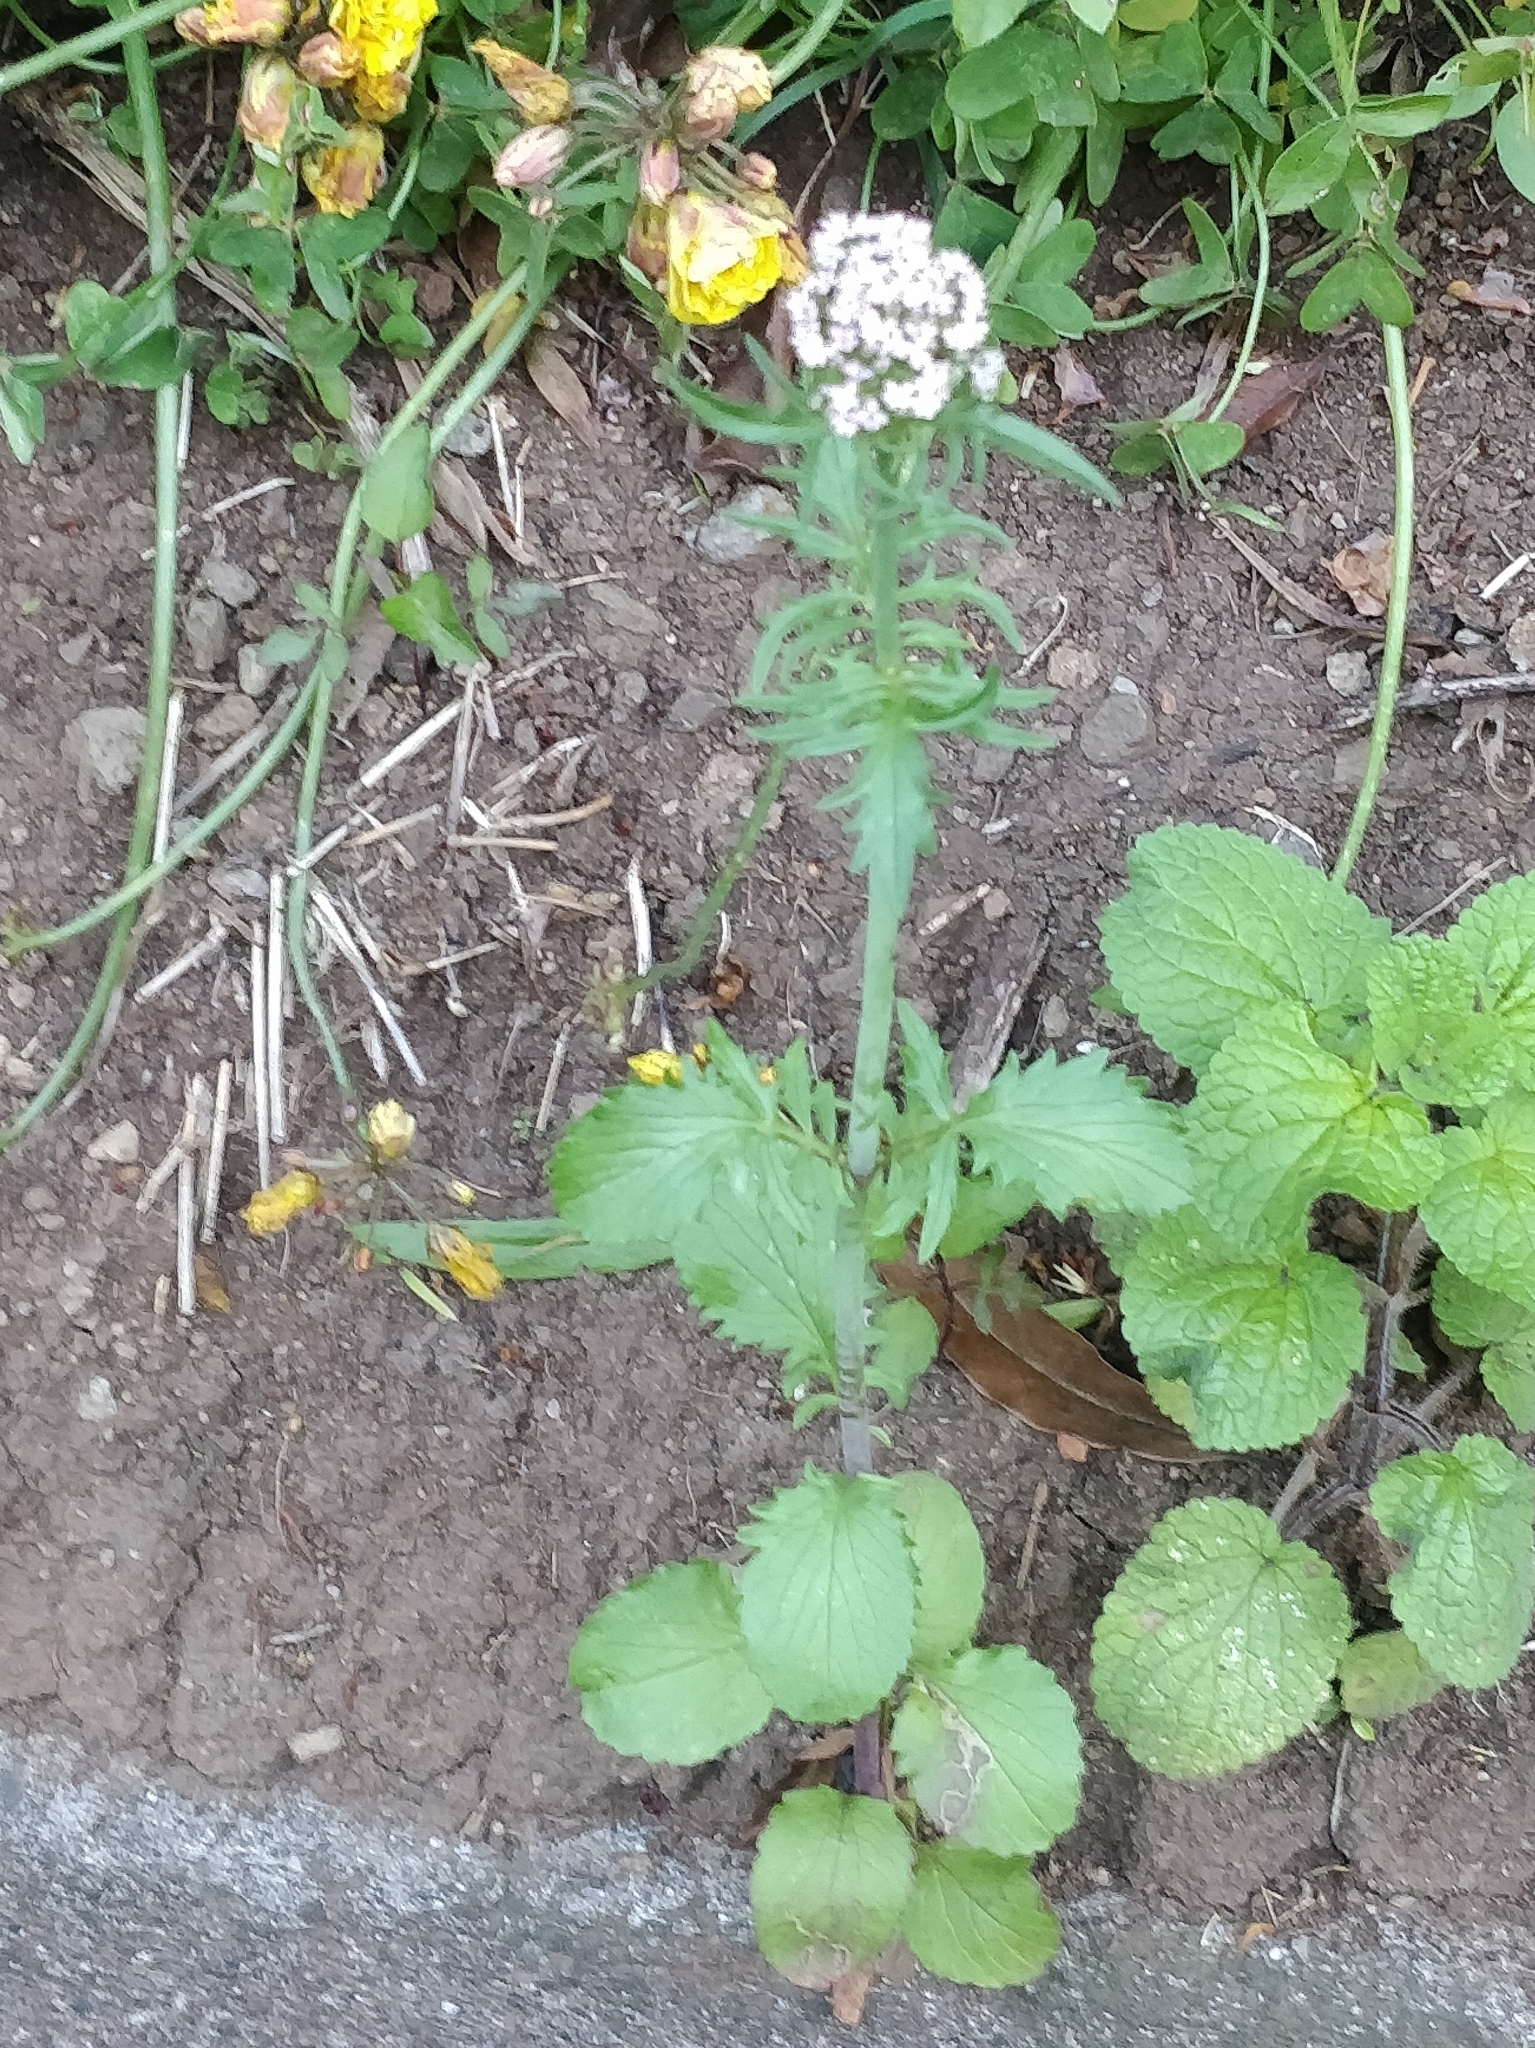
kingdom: Plantae
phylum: Tracheophyta
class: Magnoliopsida
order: Dipsacales
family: Caprifoliaceae
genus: Centranthus
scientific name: Centranthus calcitrapae
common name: Annual valerian
